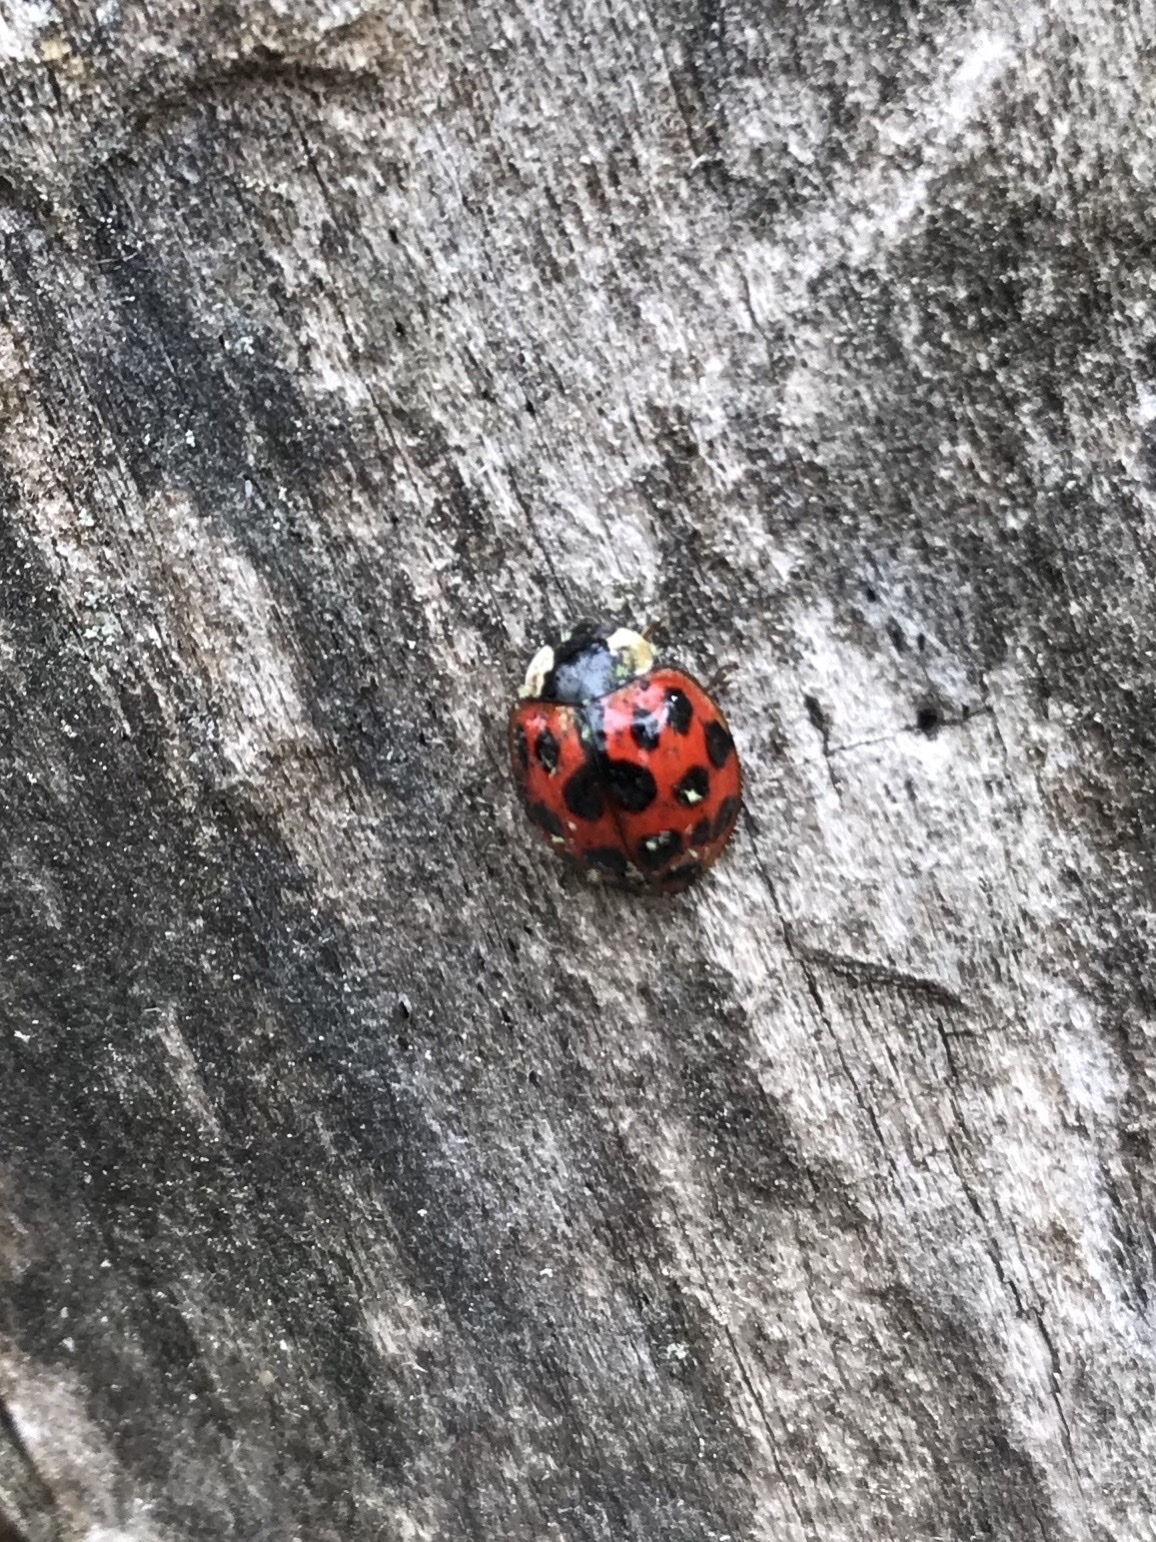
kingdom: Animalia
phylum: Arthropoda
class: Insecta
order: Coleoptera
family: Coccinellidae
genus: Harmonia
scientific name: Harmonia axyridis
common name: Harlequin ladybird
